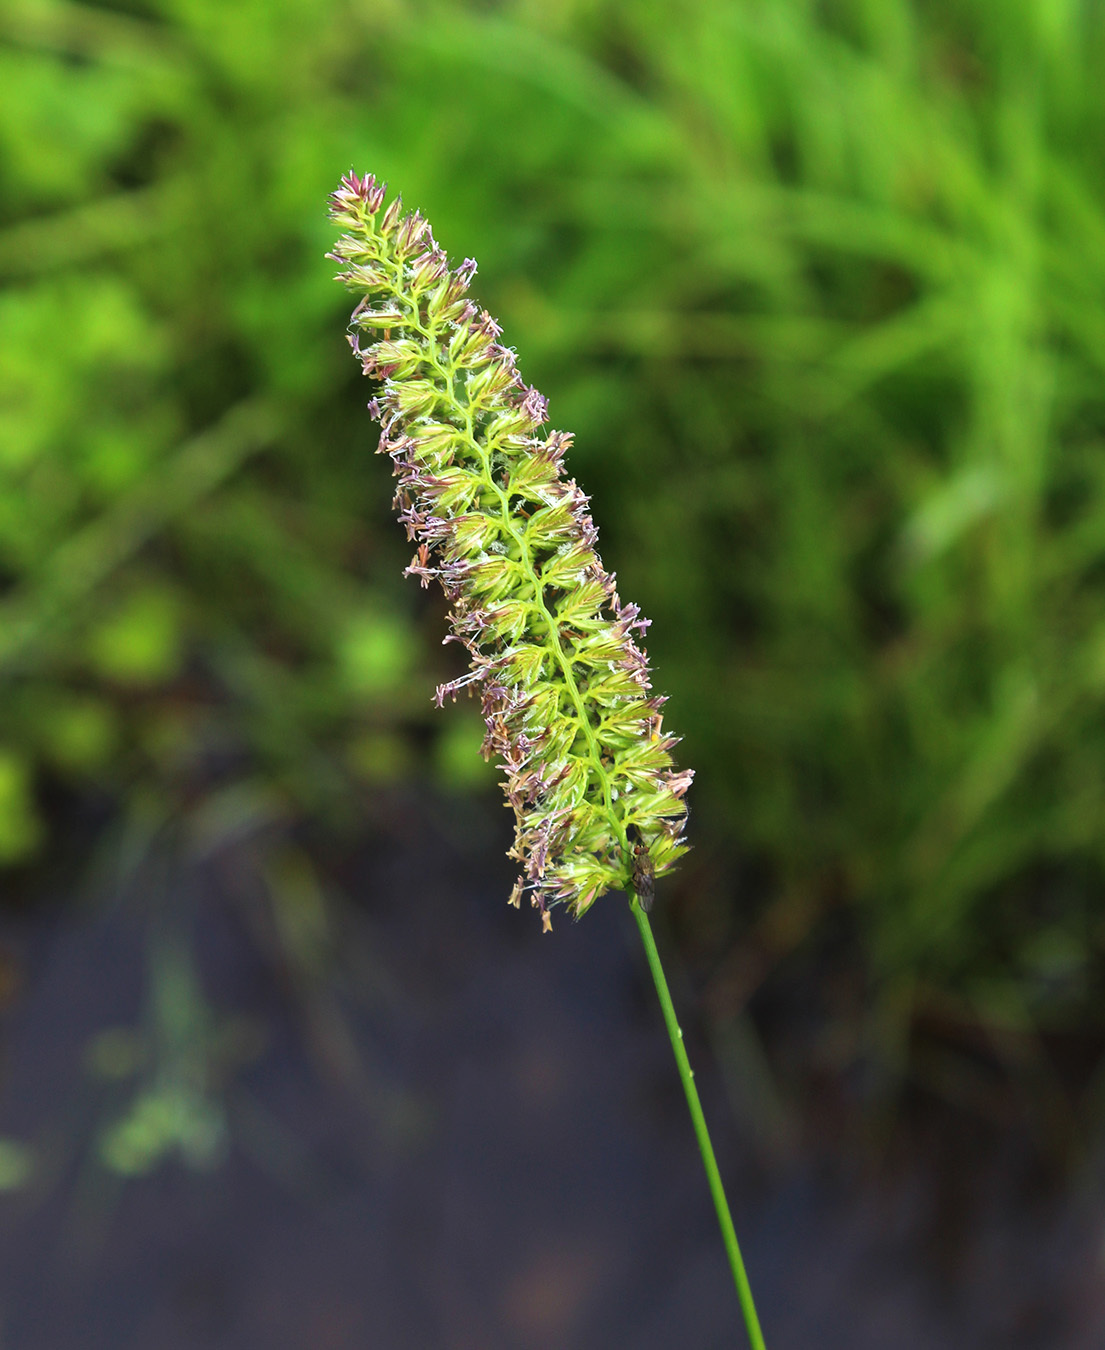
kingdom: Plantae
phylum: Tracheophyta
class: Liliopsida
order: Poales
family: Poaceae
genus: Cynosurus
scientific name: Cynosurus cristatus
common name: Crested dog's-tail
